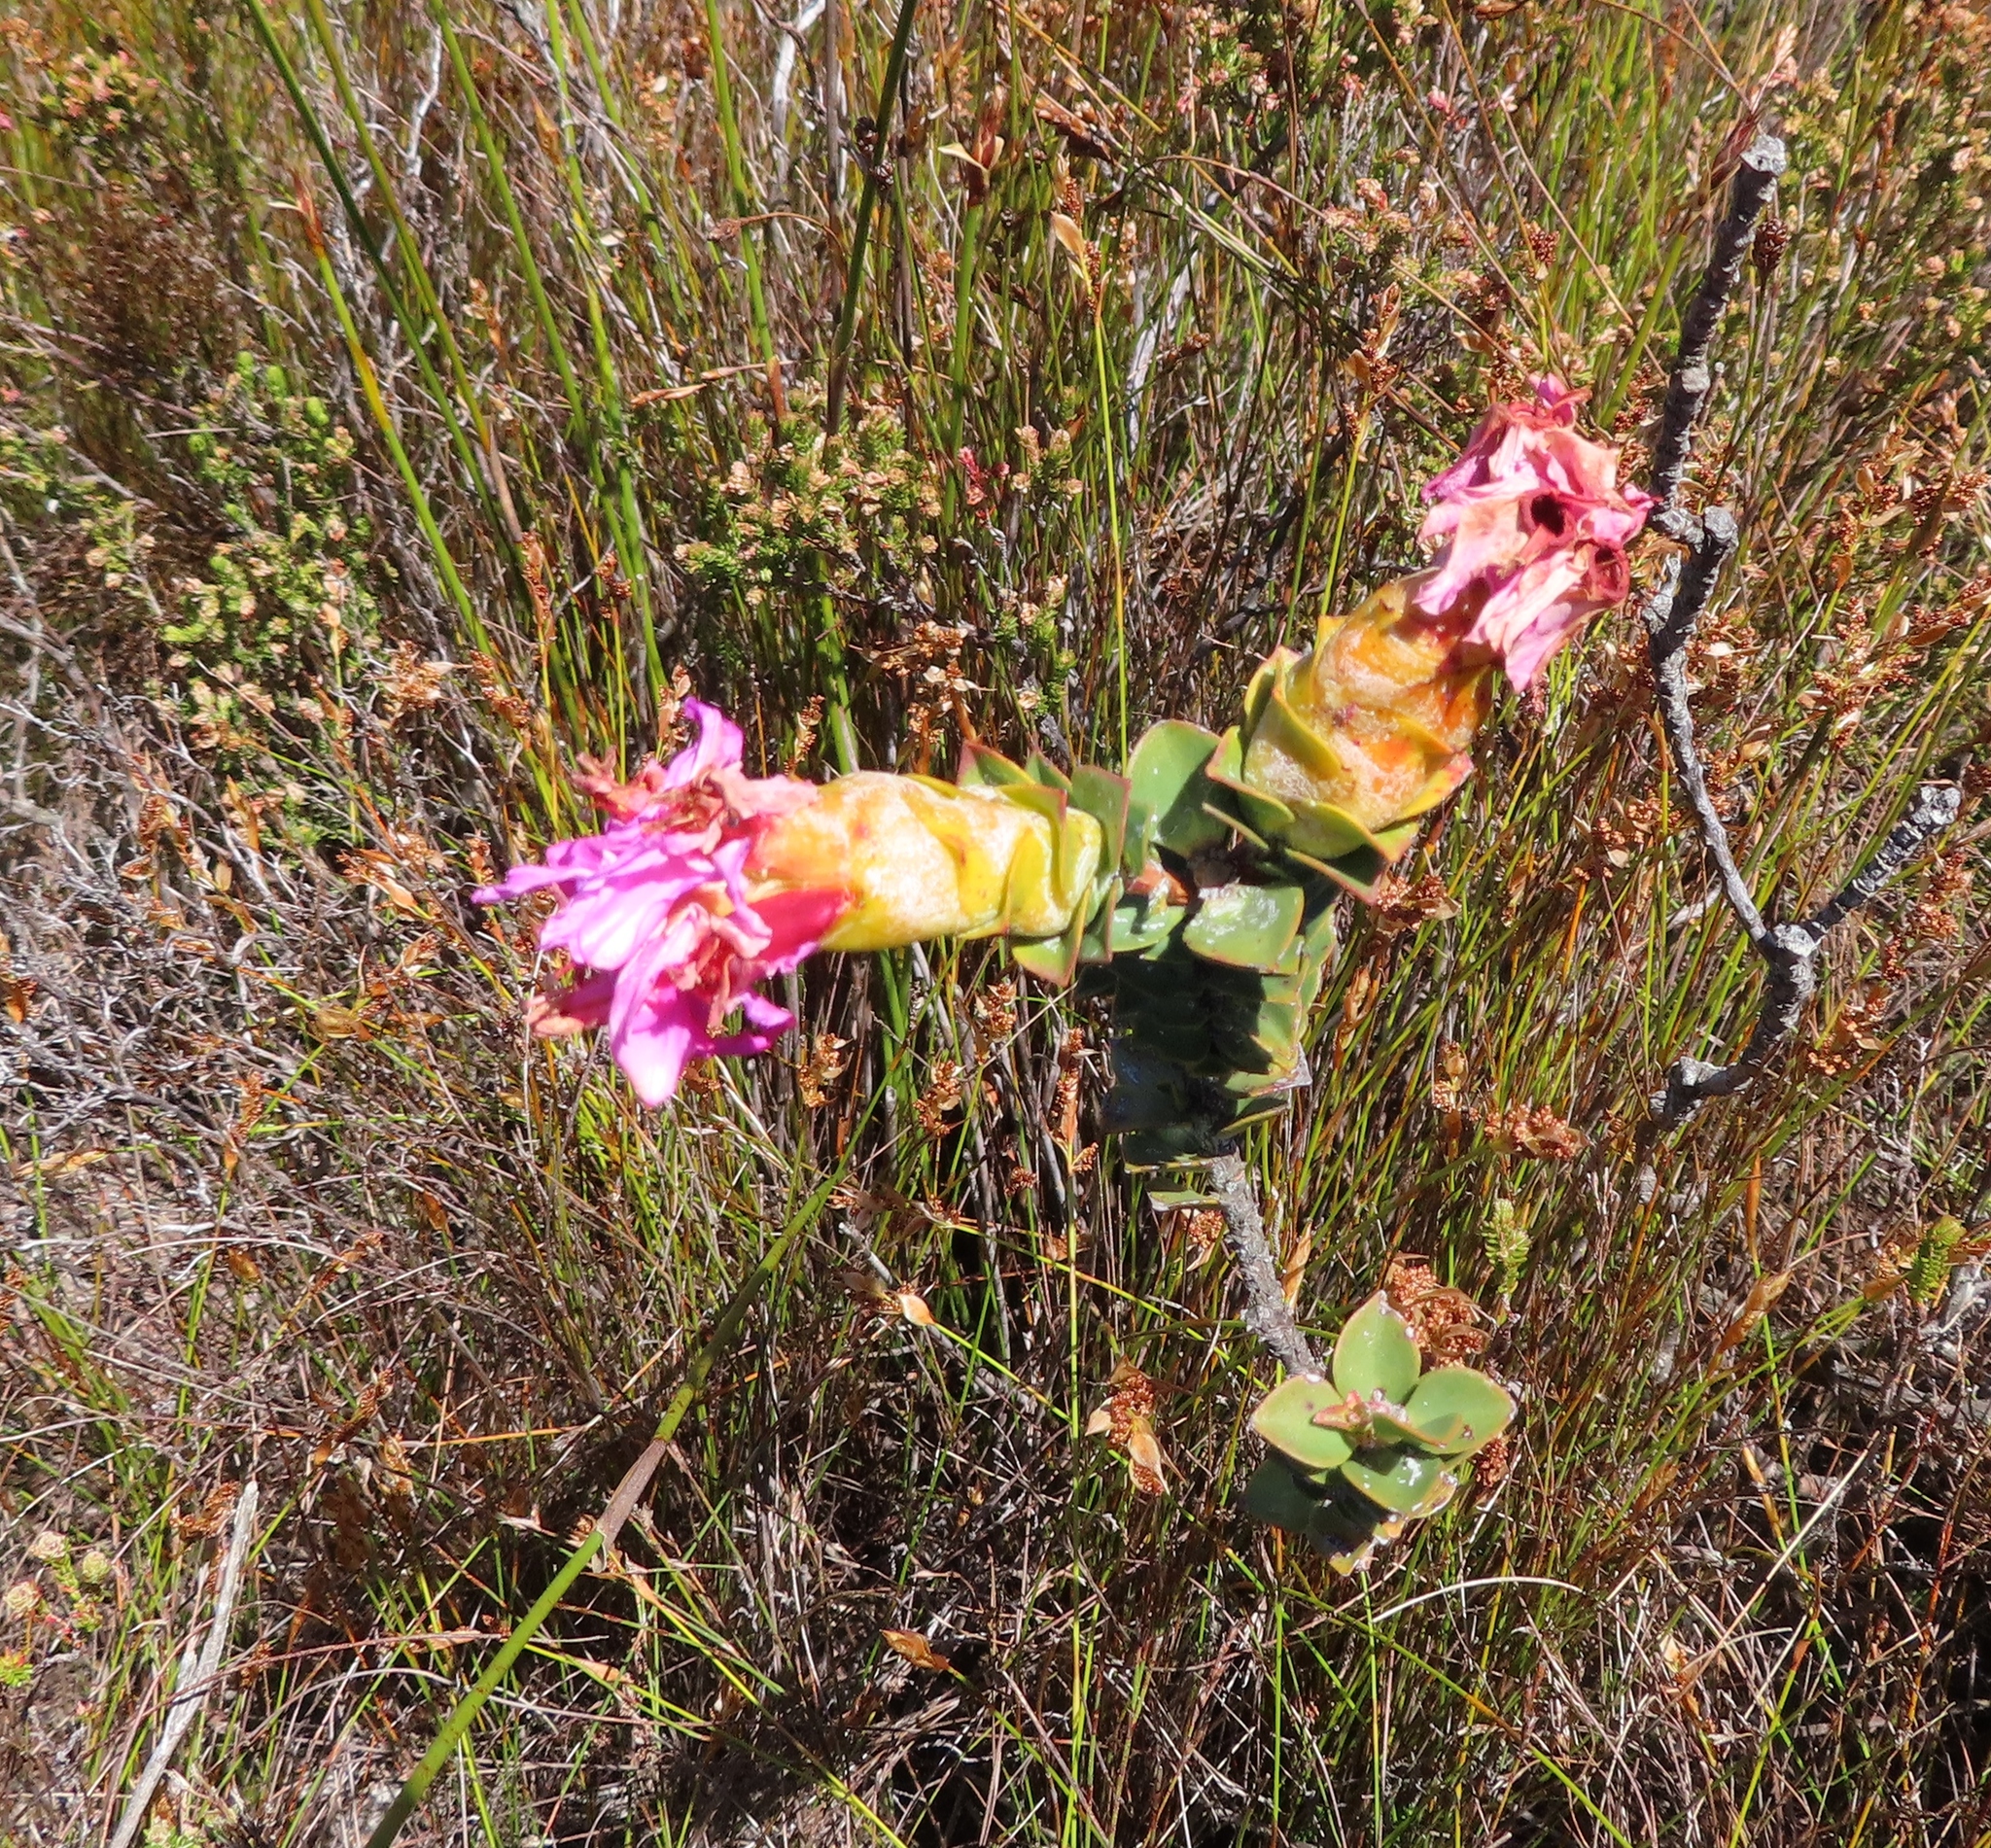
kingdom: Plantae
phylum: Tracheophyta
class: Magnoliopsida
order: Myrtales
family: Penaeaceae
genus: Saltera
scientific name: Saltera sarcocolla
